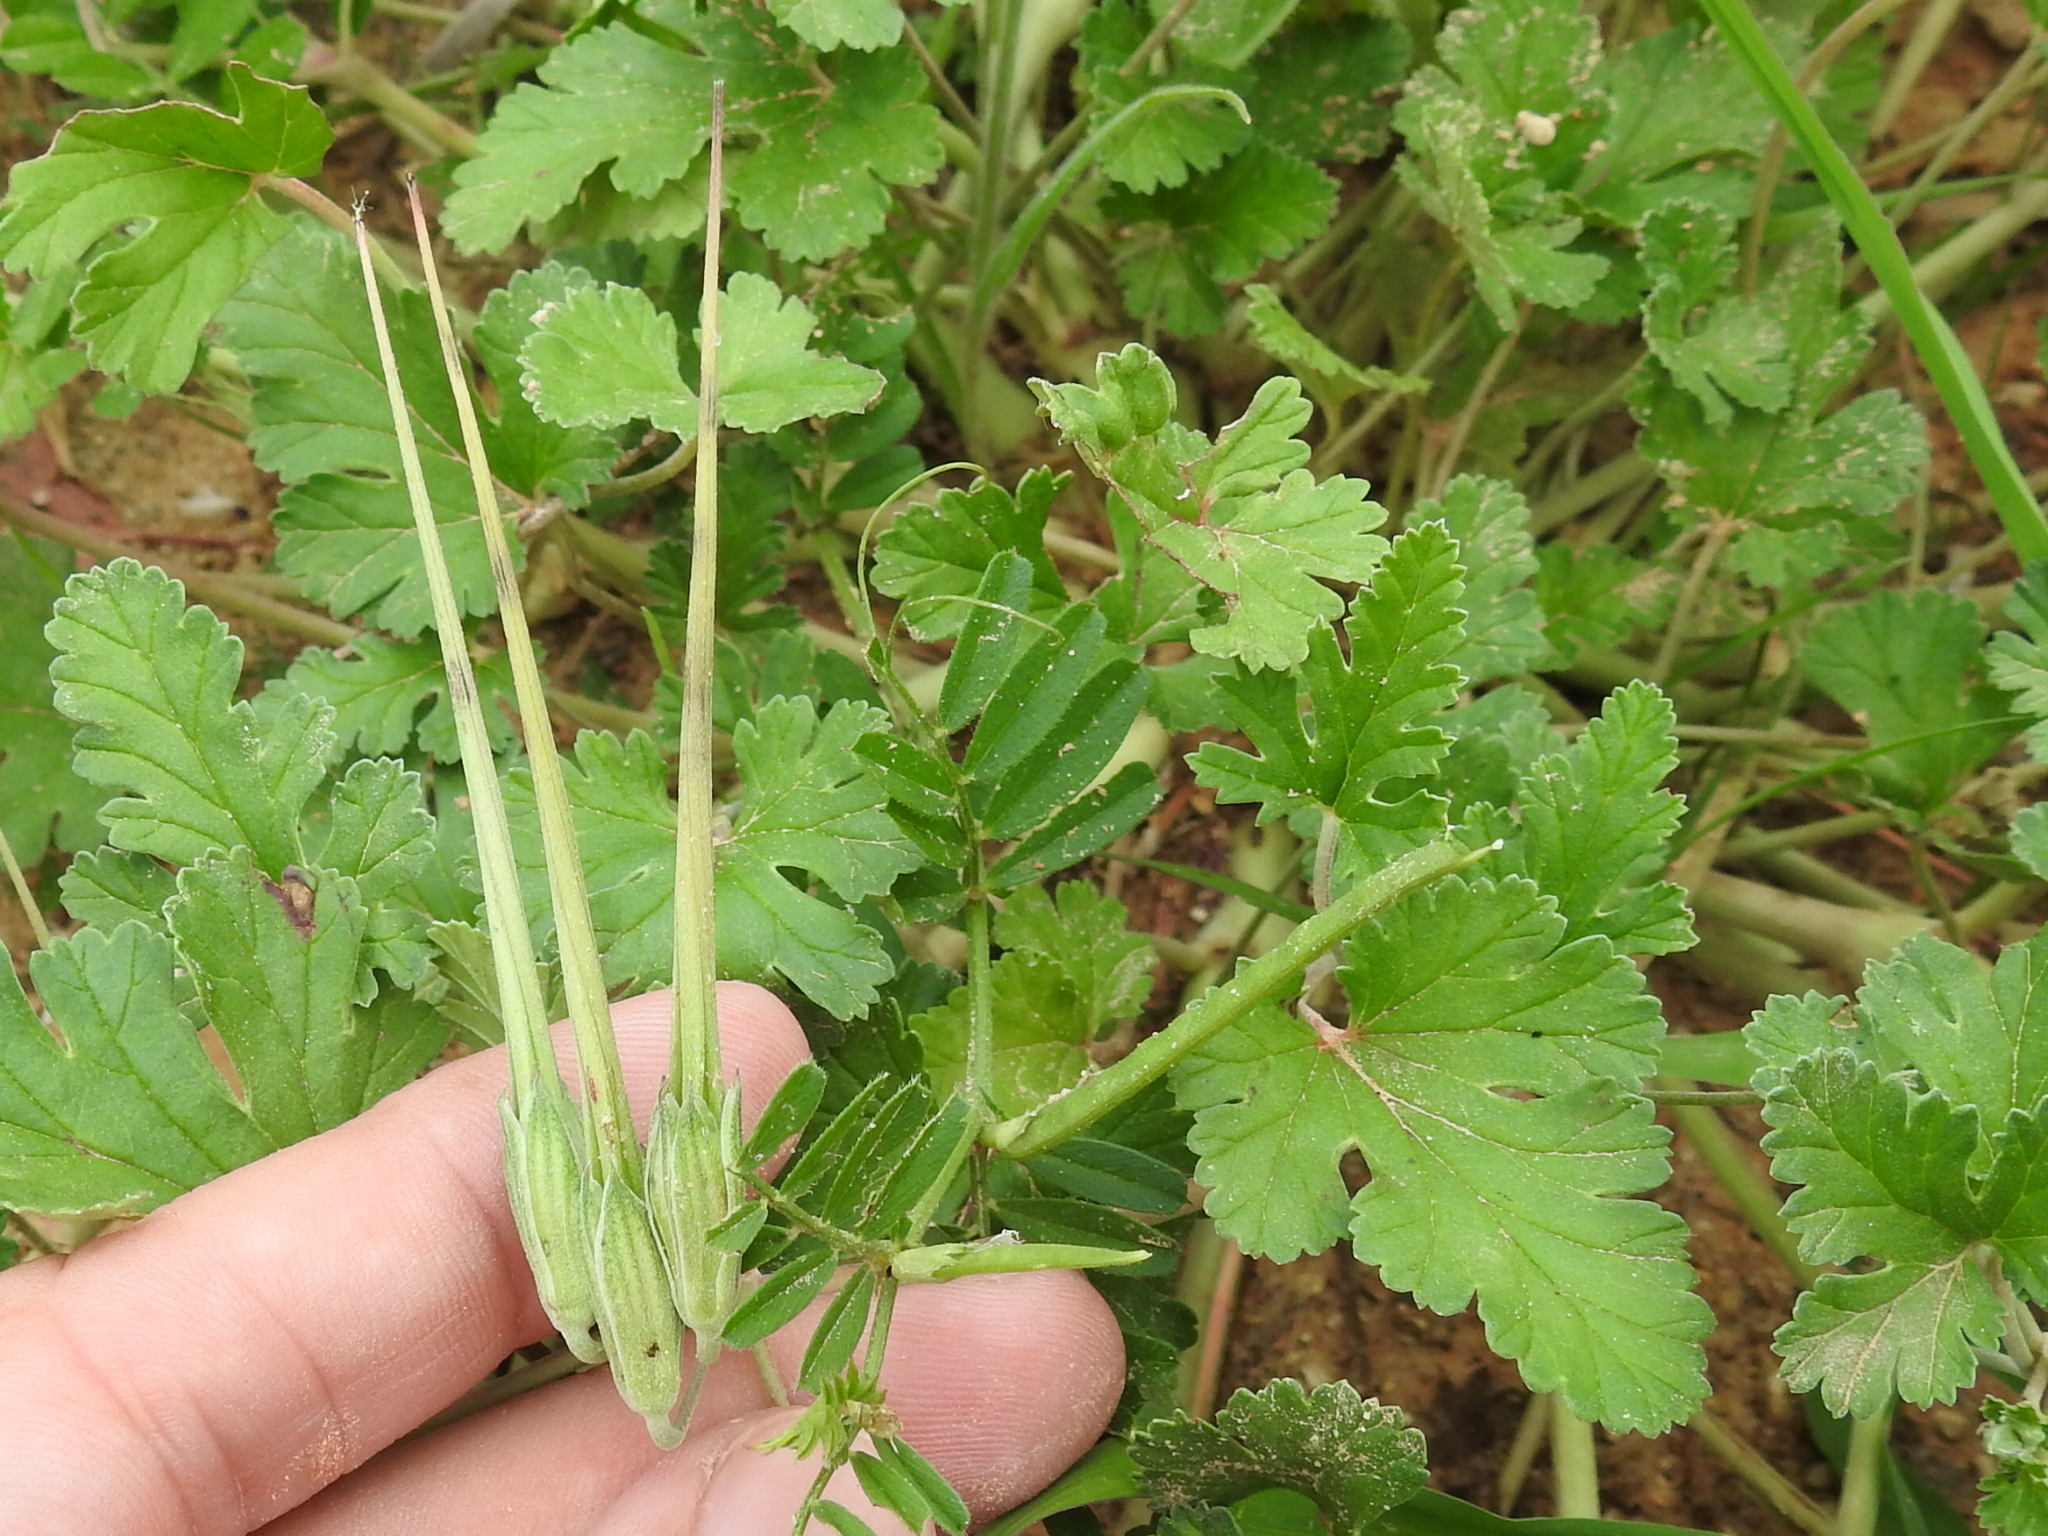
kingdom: Plantae
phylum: Tracheophyta
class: Magnoliopsida
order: Geraniales
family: Geraniaceae
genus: Erodium
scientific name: Erodium texanum
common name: Texas stork's-bill
